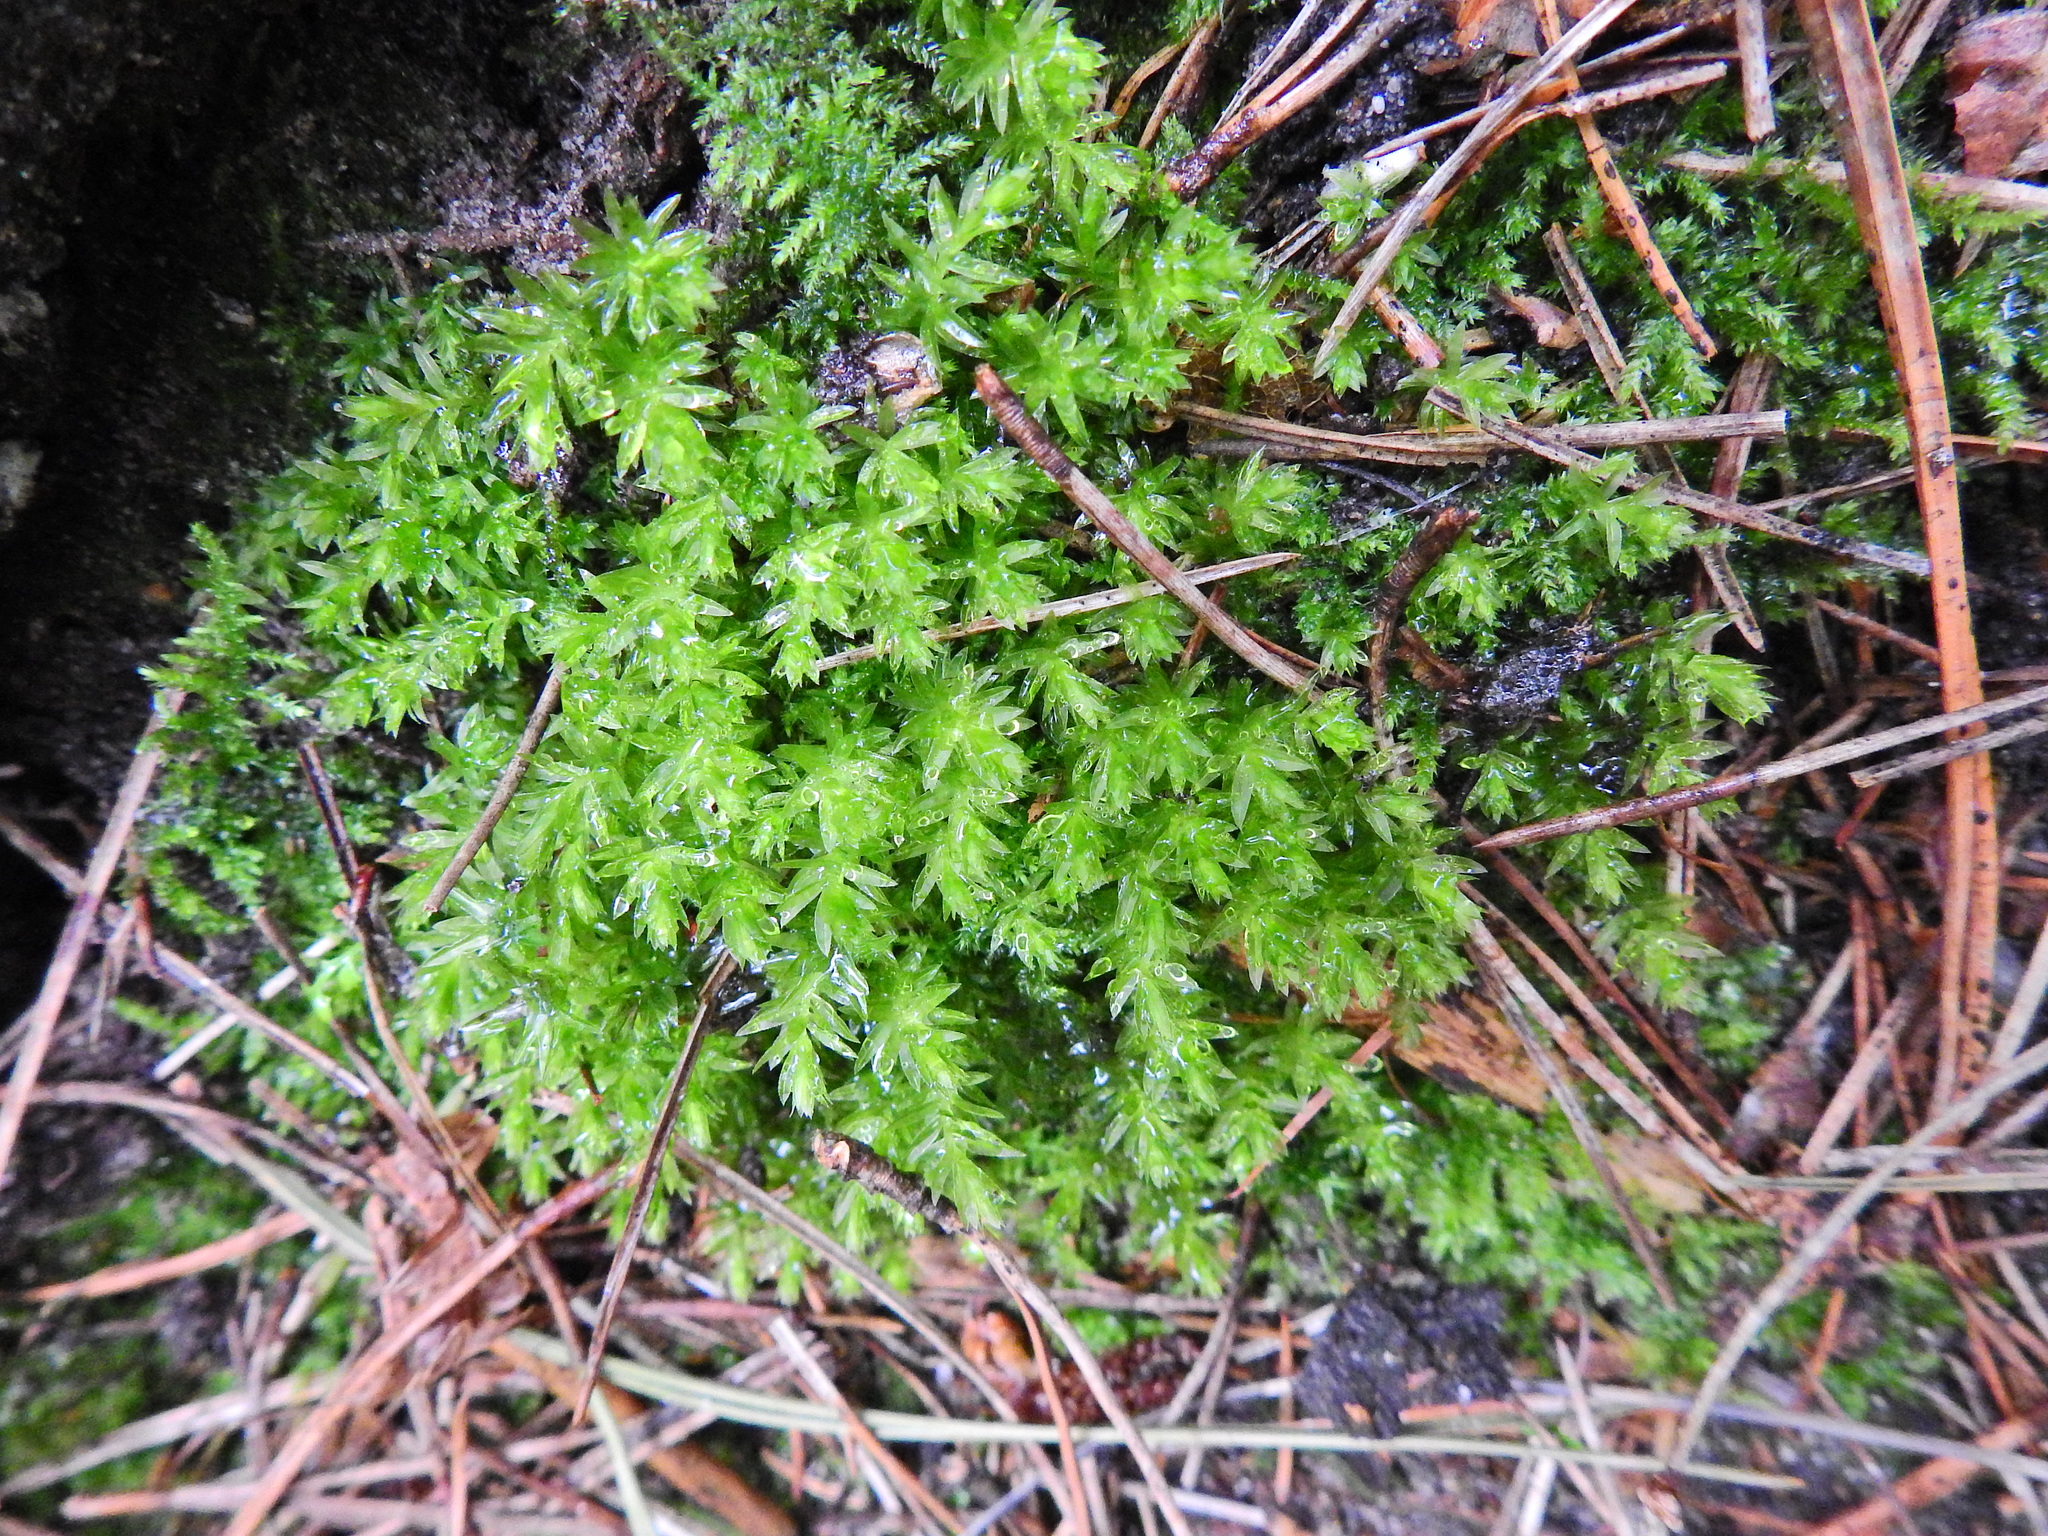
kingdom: Plantae
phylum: Bryophyta
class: Bryopsida
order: Bryales
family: Mniaceae
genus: Mnium
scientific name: Mnium hornum
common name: Swan's-neck leafy moss
